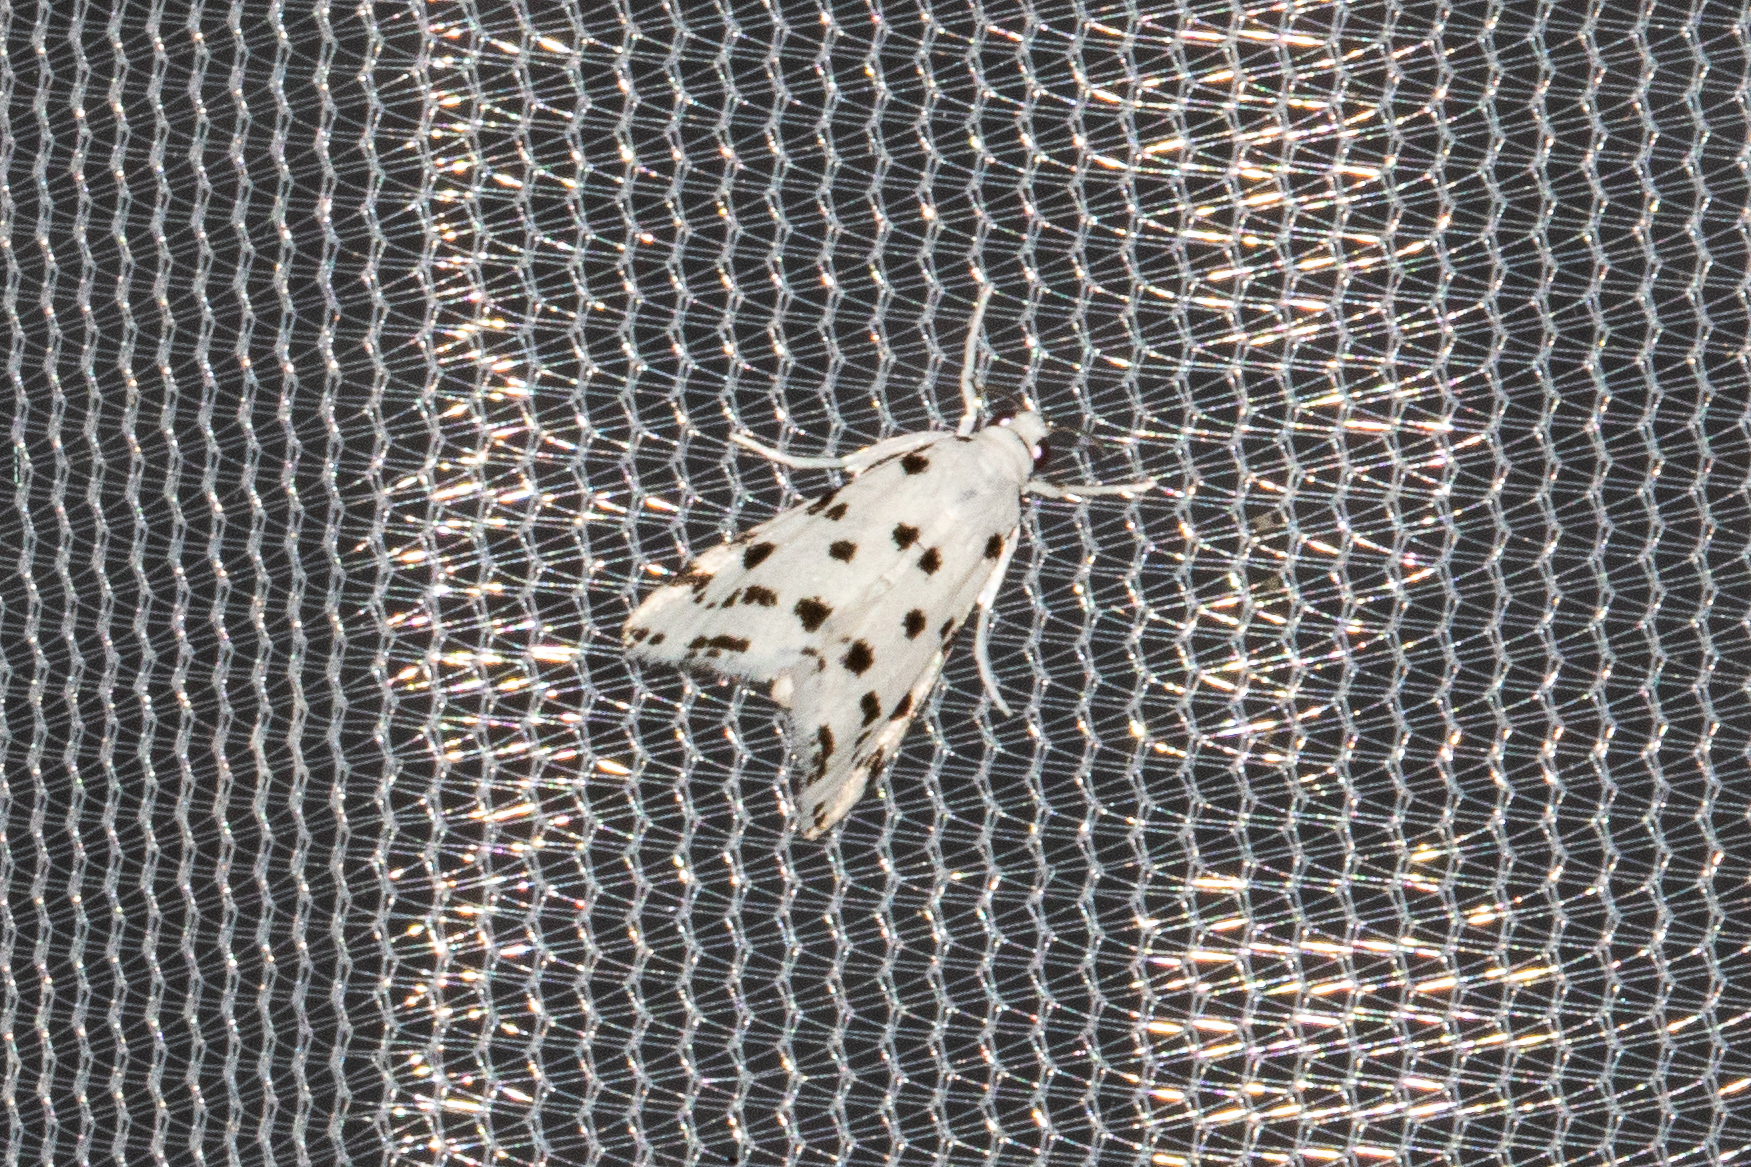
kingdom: Animalia
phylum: Arthropoda
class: Insecta
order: Lepidoptera
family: Crambidae
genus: Eustixia
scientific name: Eustixia pupula
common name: American cabbage pearl
